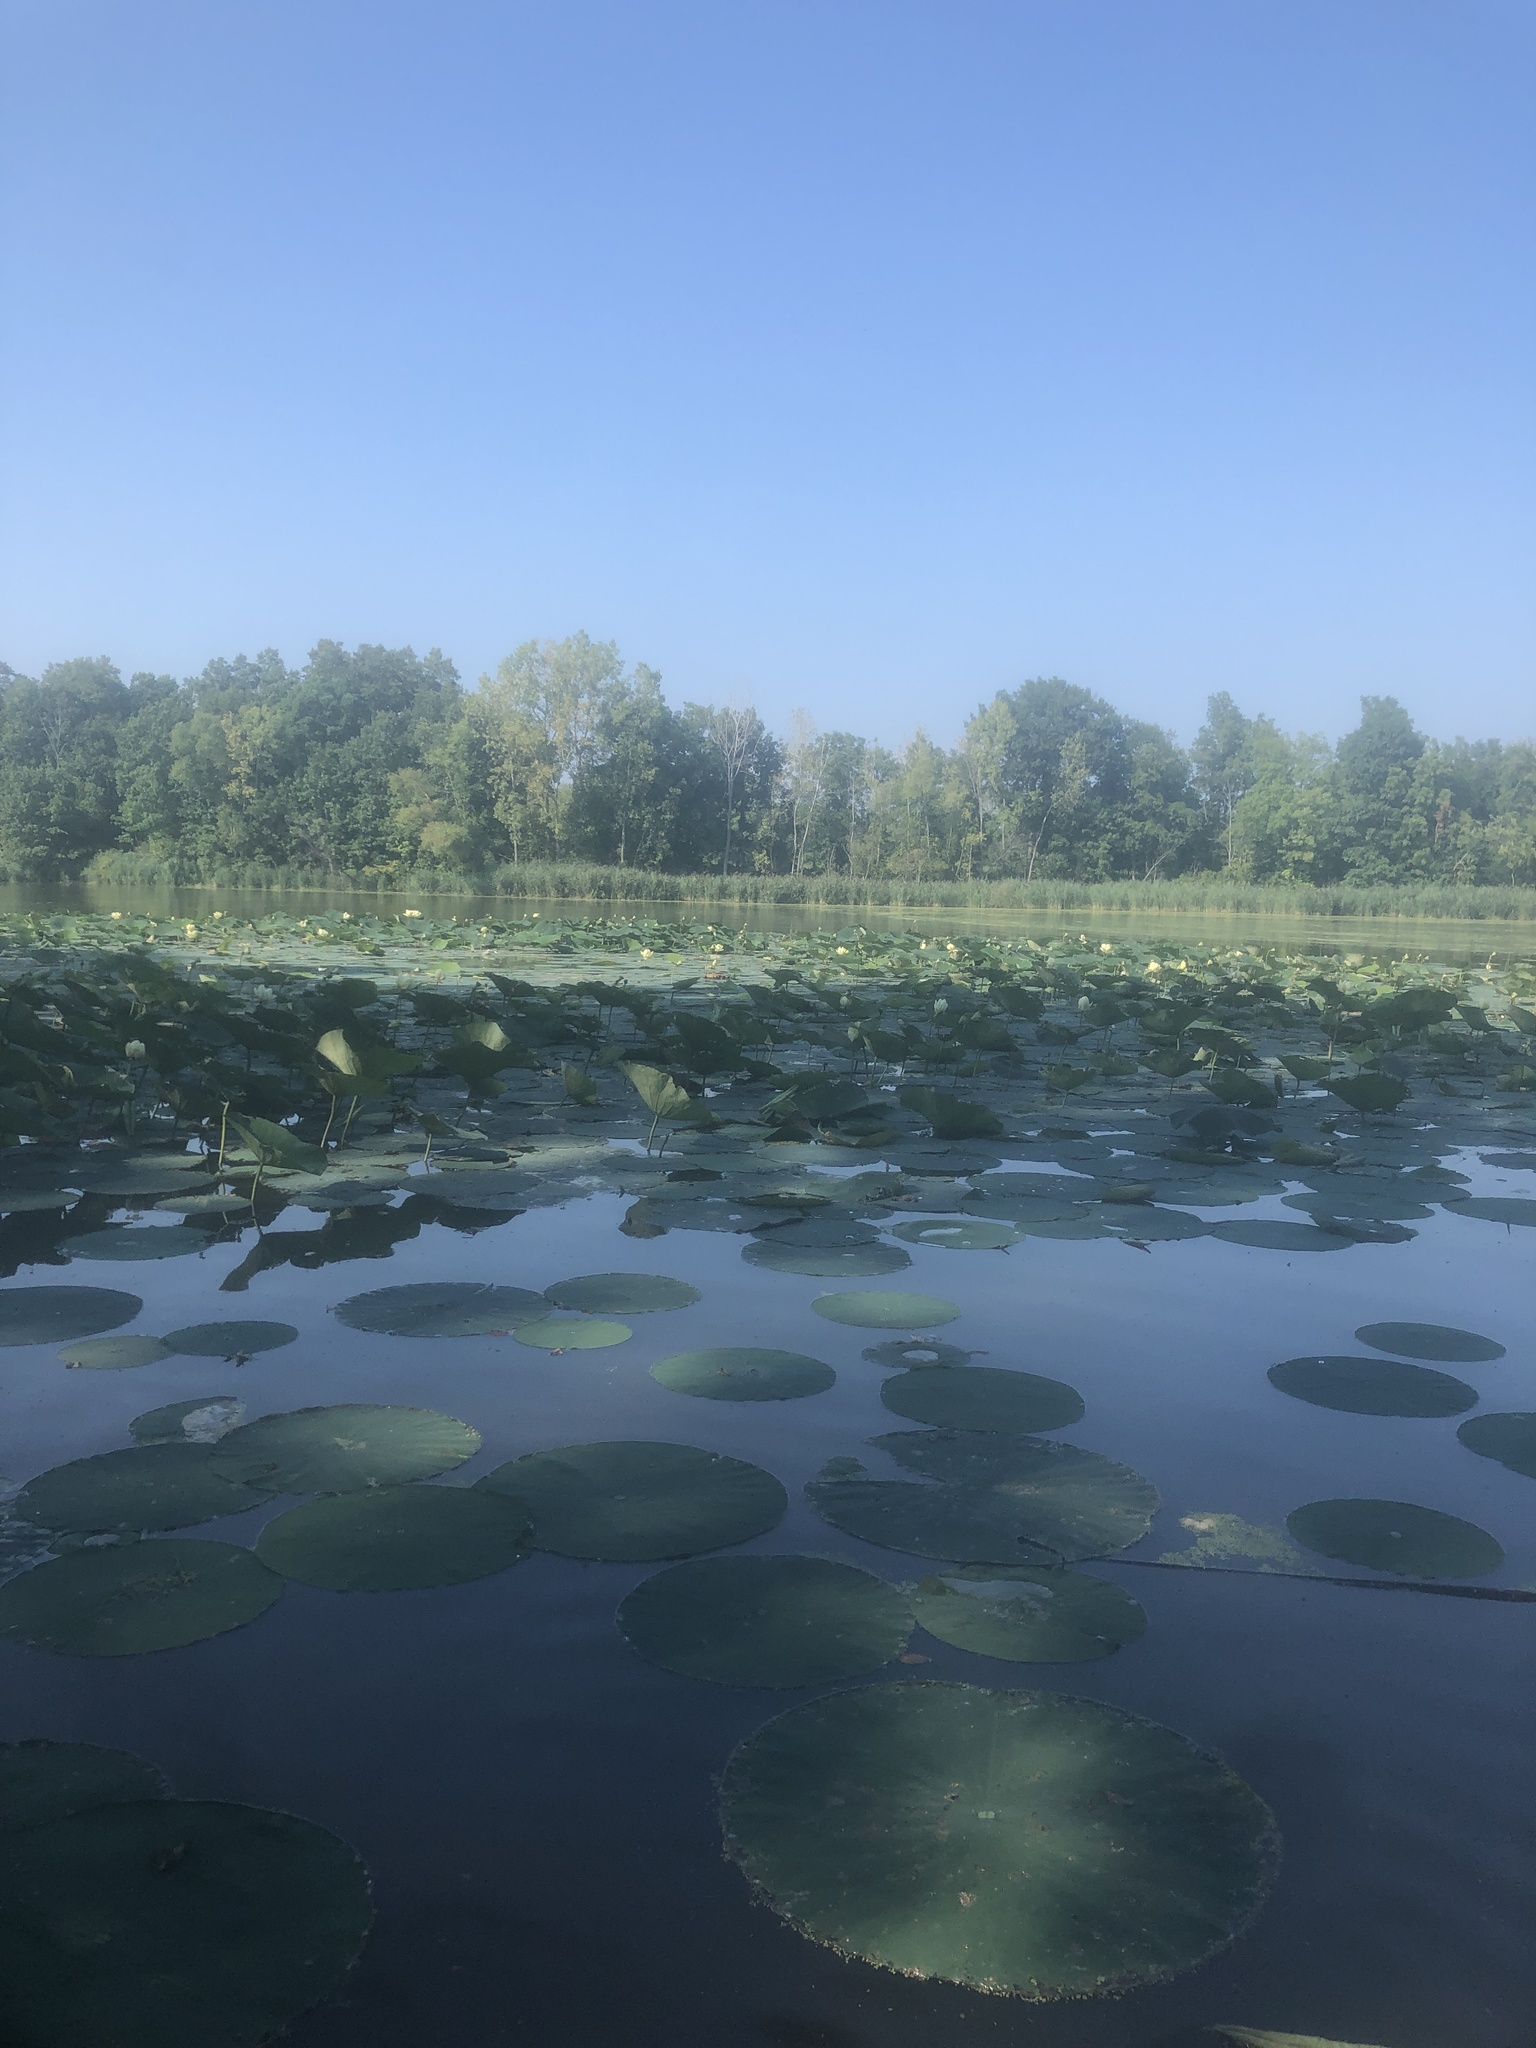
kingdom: Plantae
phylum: Tracheophyta
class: Magnoliopsida
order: Proteales
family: Nelumbonaceae
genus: Nelumbo
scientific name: Nelumbo lutea
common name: American lotus
